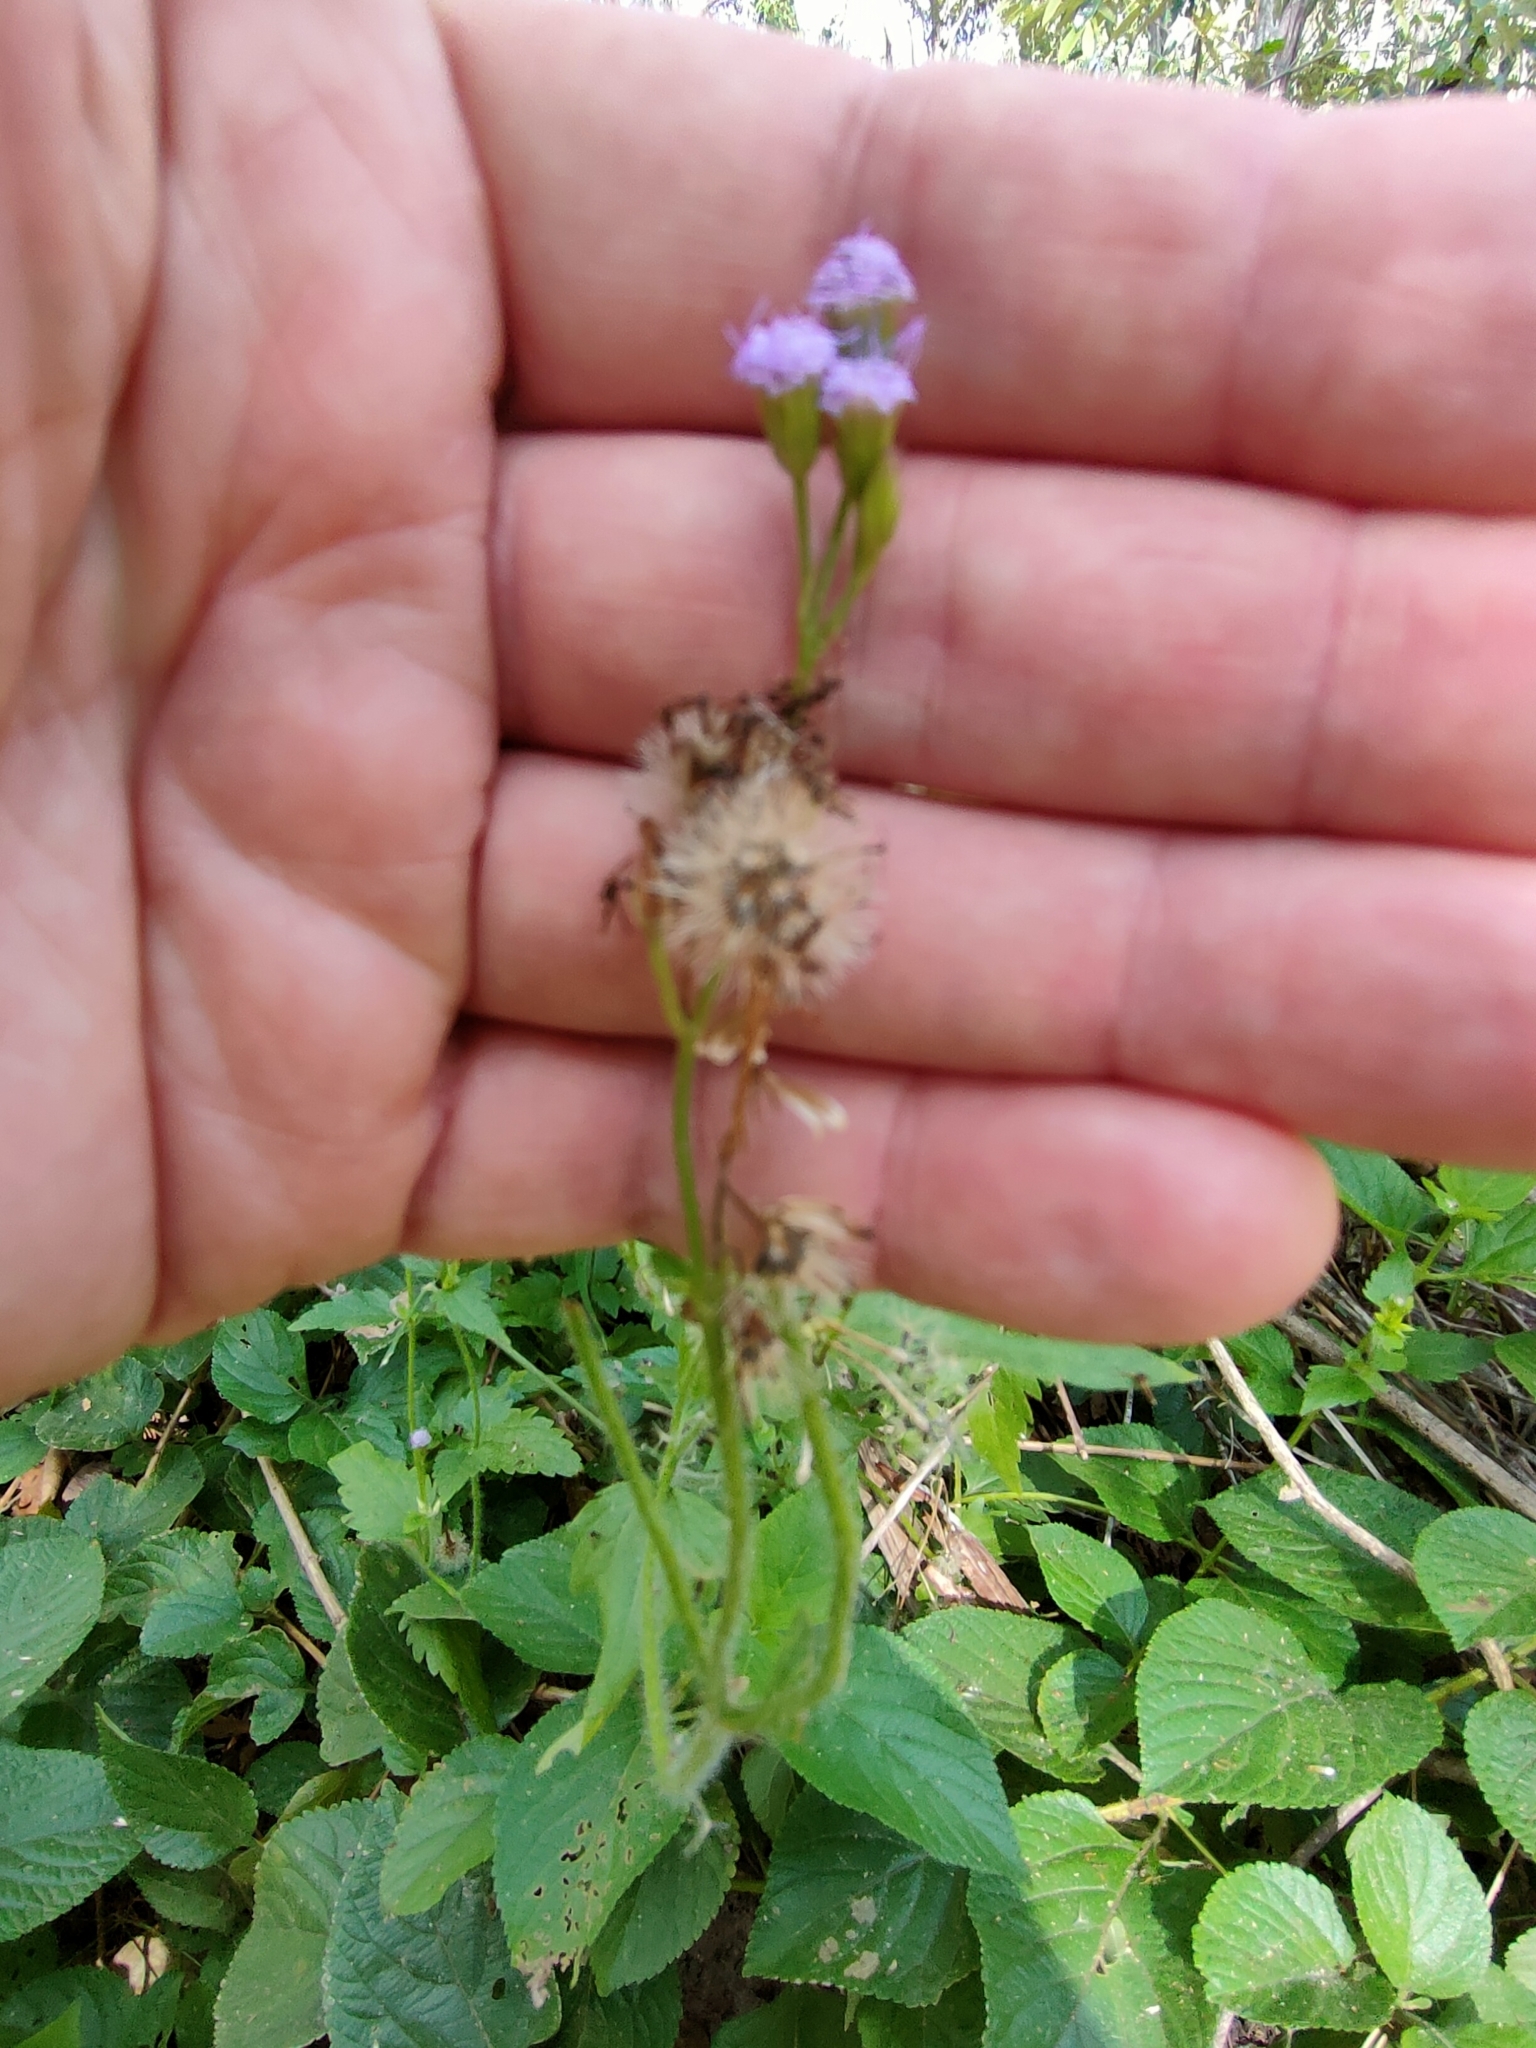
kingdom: Plantae
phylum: Tracheophyta
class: Magnoliopsida
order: Asterales
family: Asteraceae
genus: Praxelis
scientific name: Praxelis clematidea
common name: Praxelis
